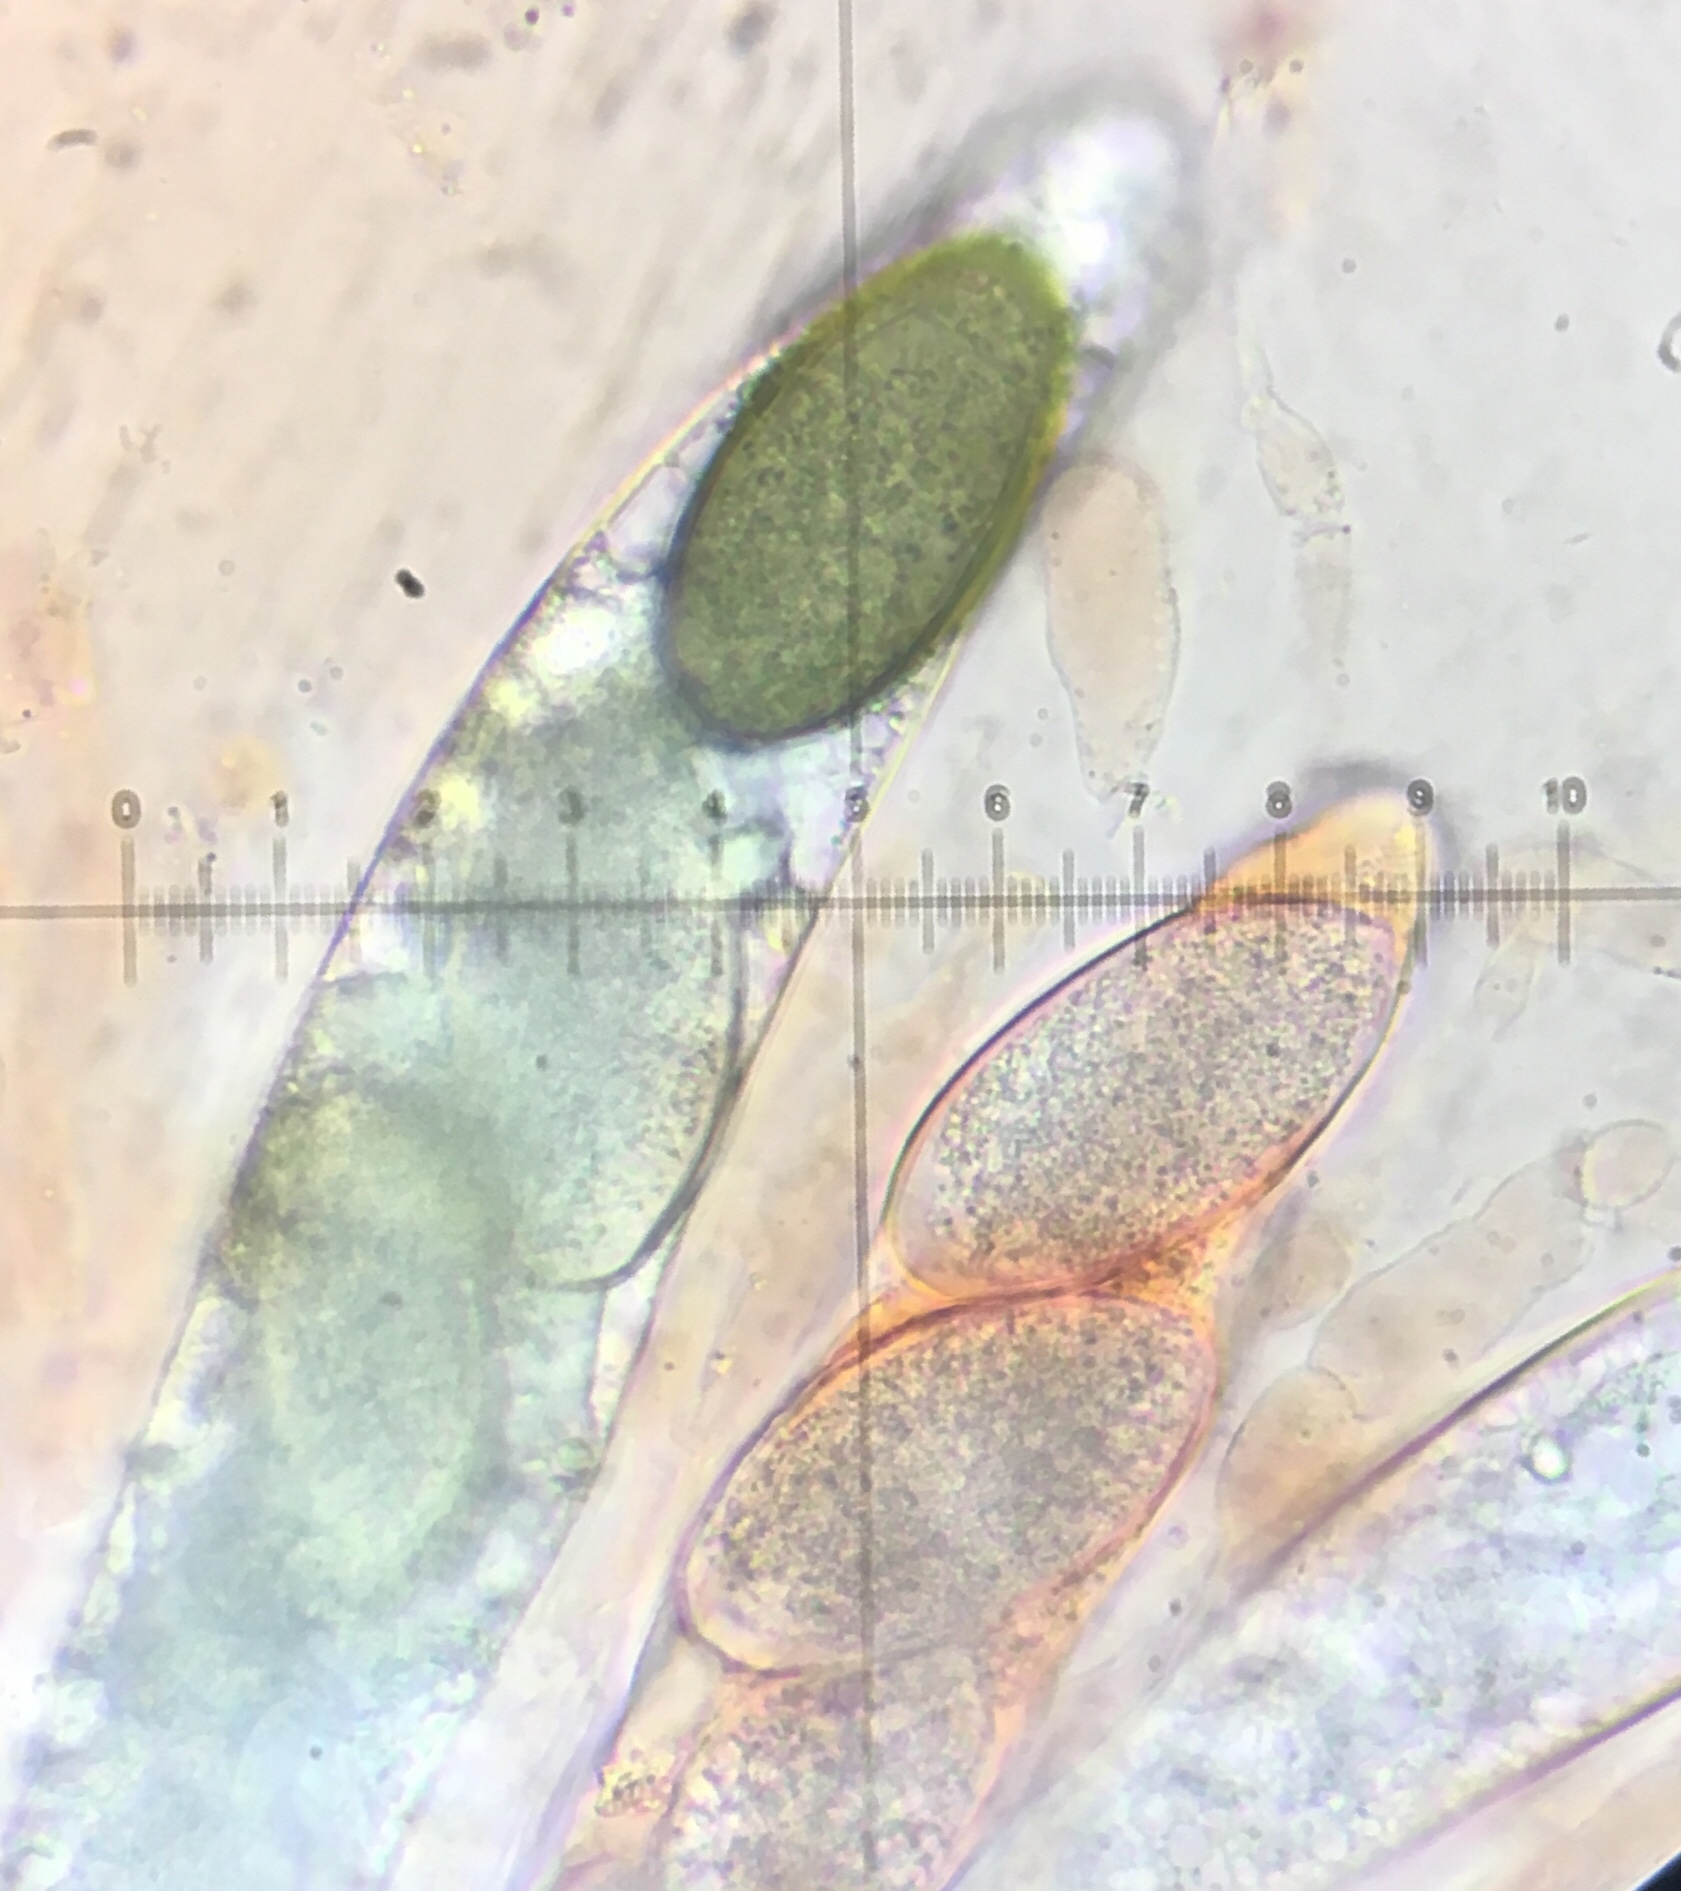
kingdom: Fungi
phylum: Ascomycota
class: Sordariomycetes
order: Sordariales
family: Podosporaceae
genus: Podospora
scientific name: Podospora australis
